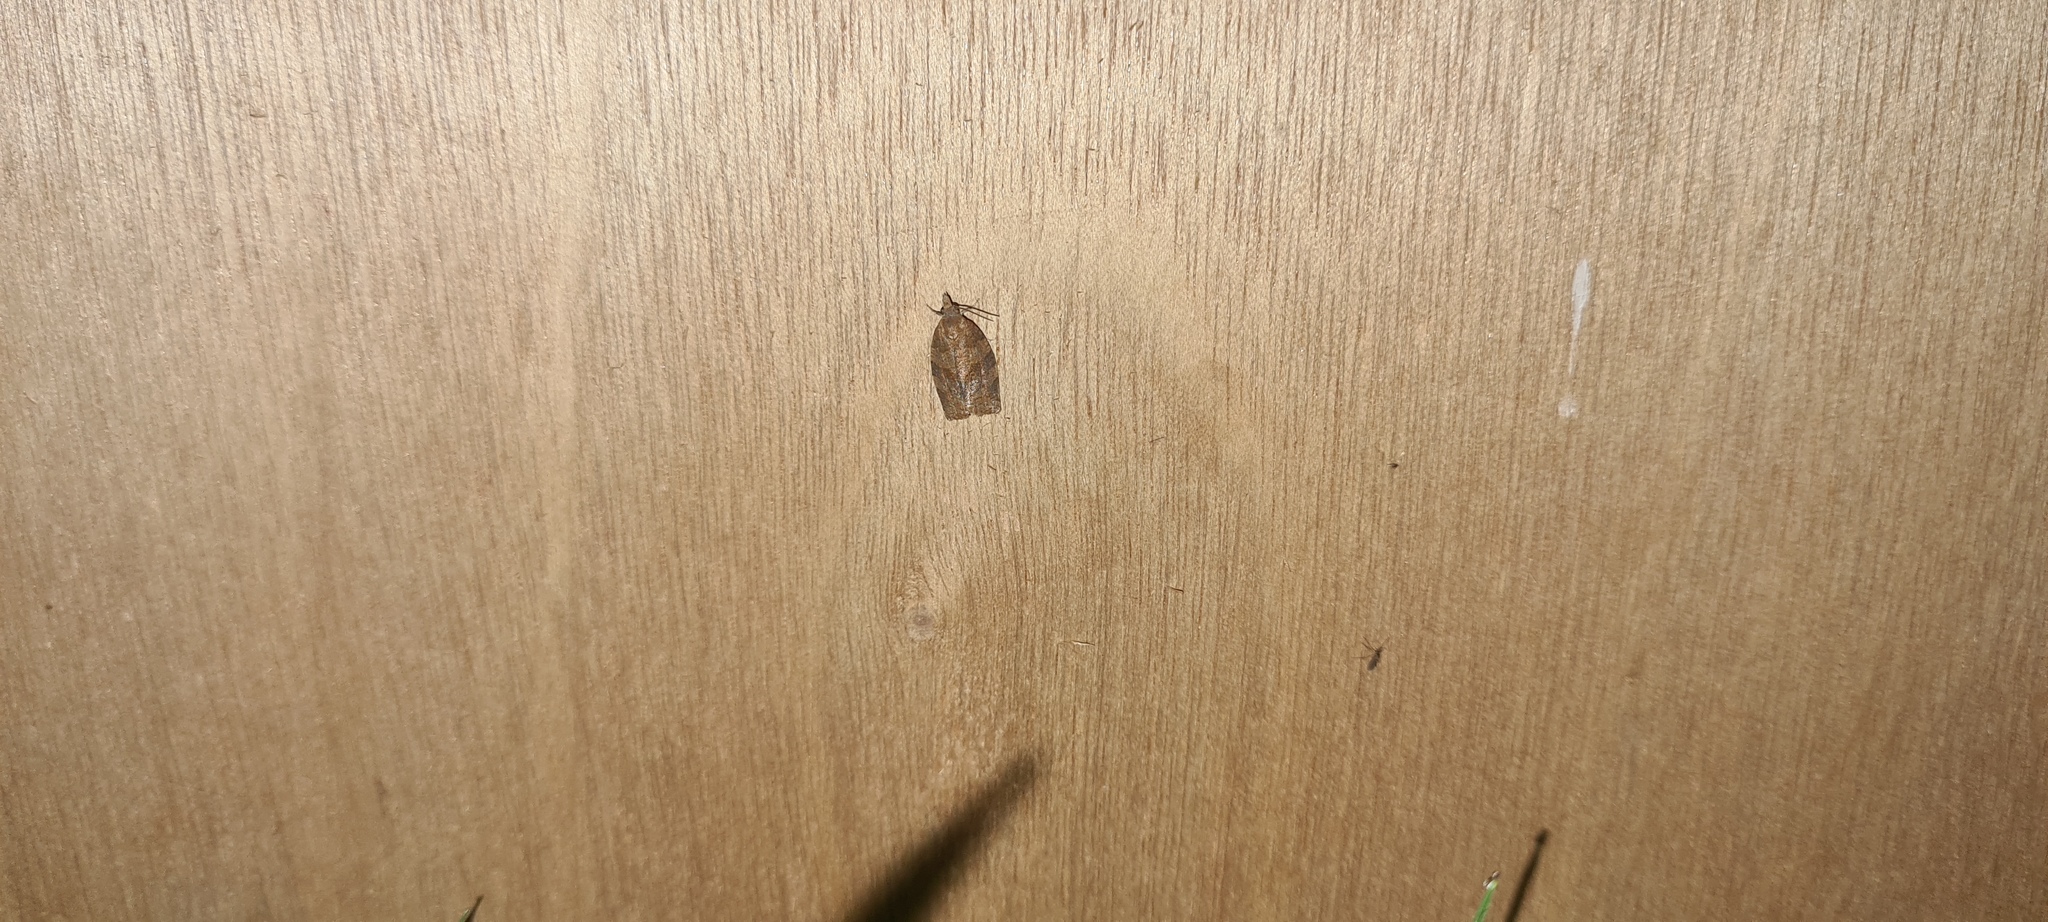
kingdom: Animalia
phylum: Arthropoda
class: Insecta
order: Lepidoptera
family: Tortricidae
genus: Pandemis
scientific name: Pandemis heparana
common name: Dark fruit-tree tortrix
